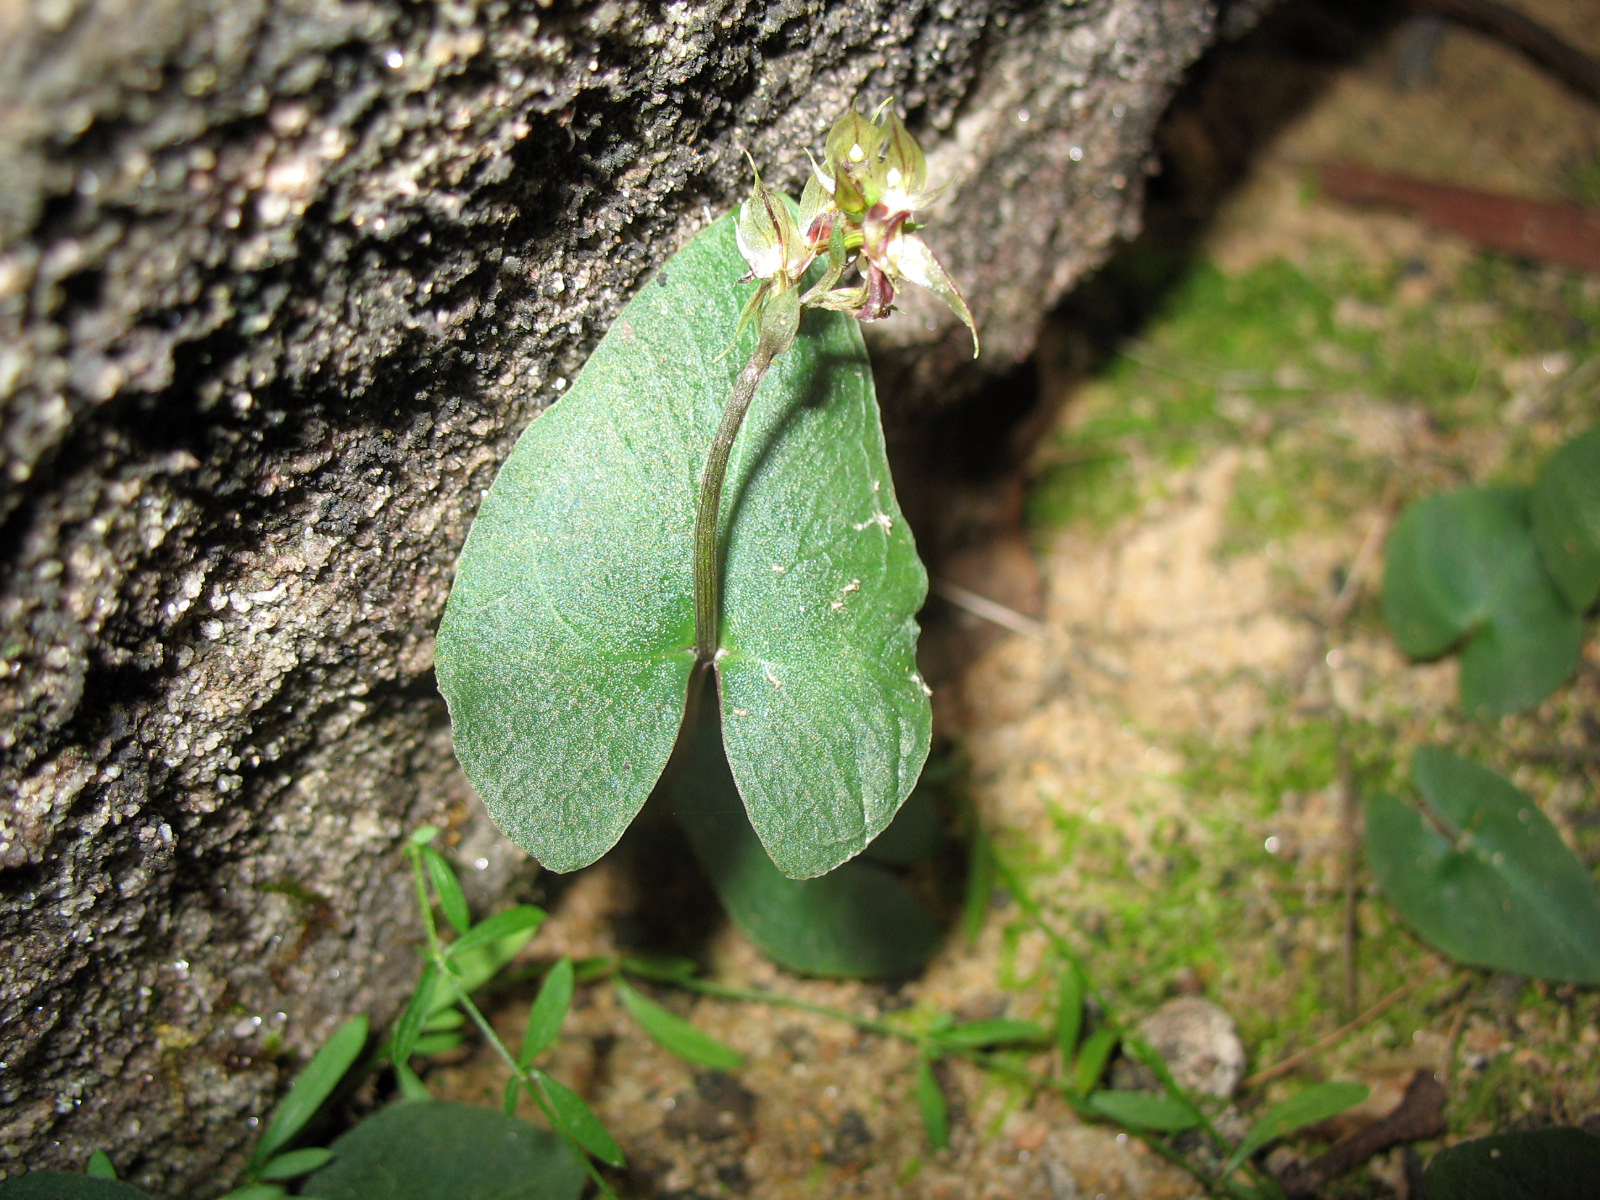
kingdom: Plantae
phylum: Tracheophyta
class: Liliopsida
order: Asparagales
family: Orchidaceae
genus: Acianthus
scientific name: Acianthus fornicatus
